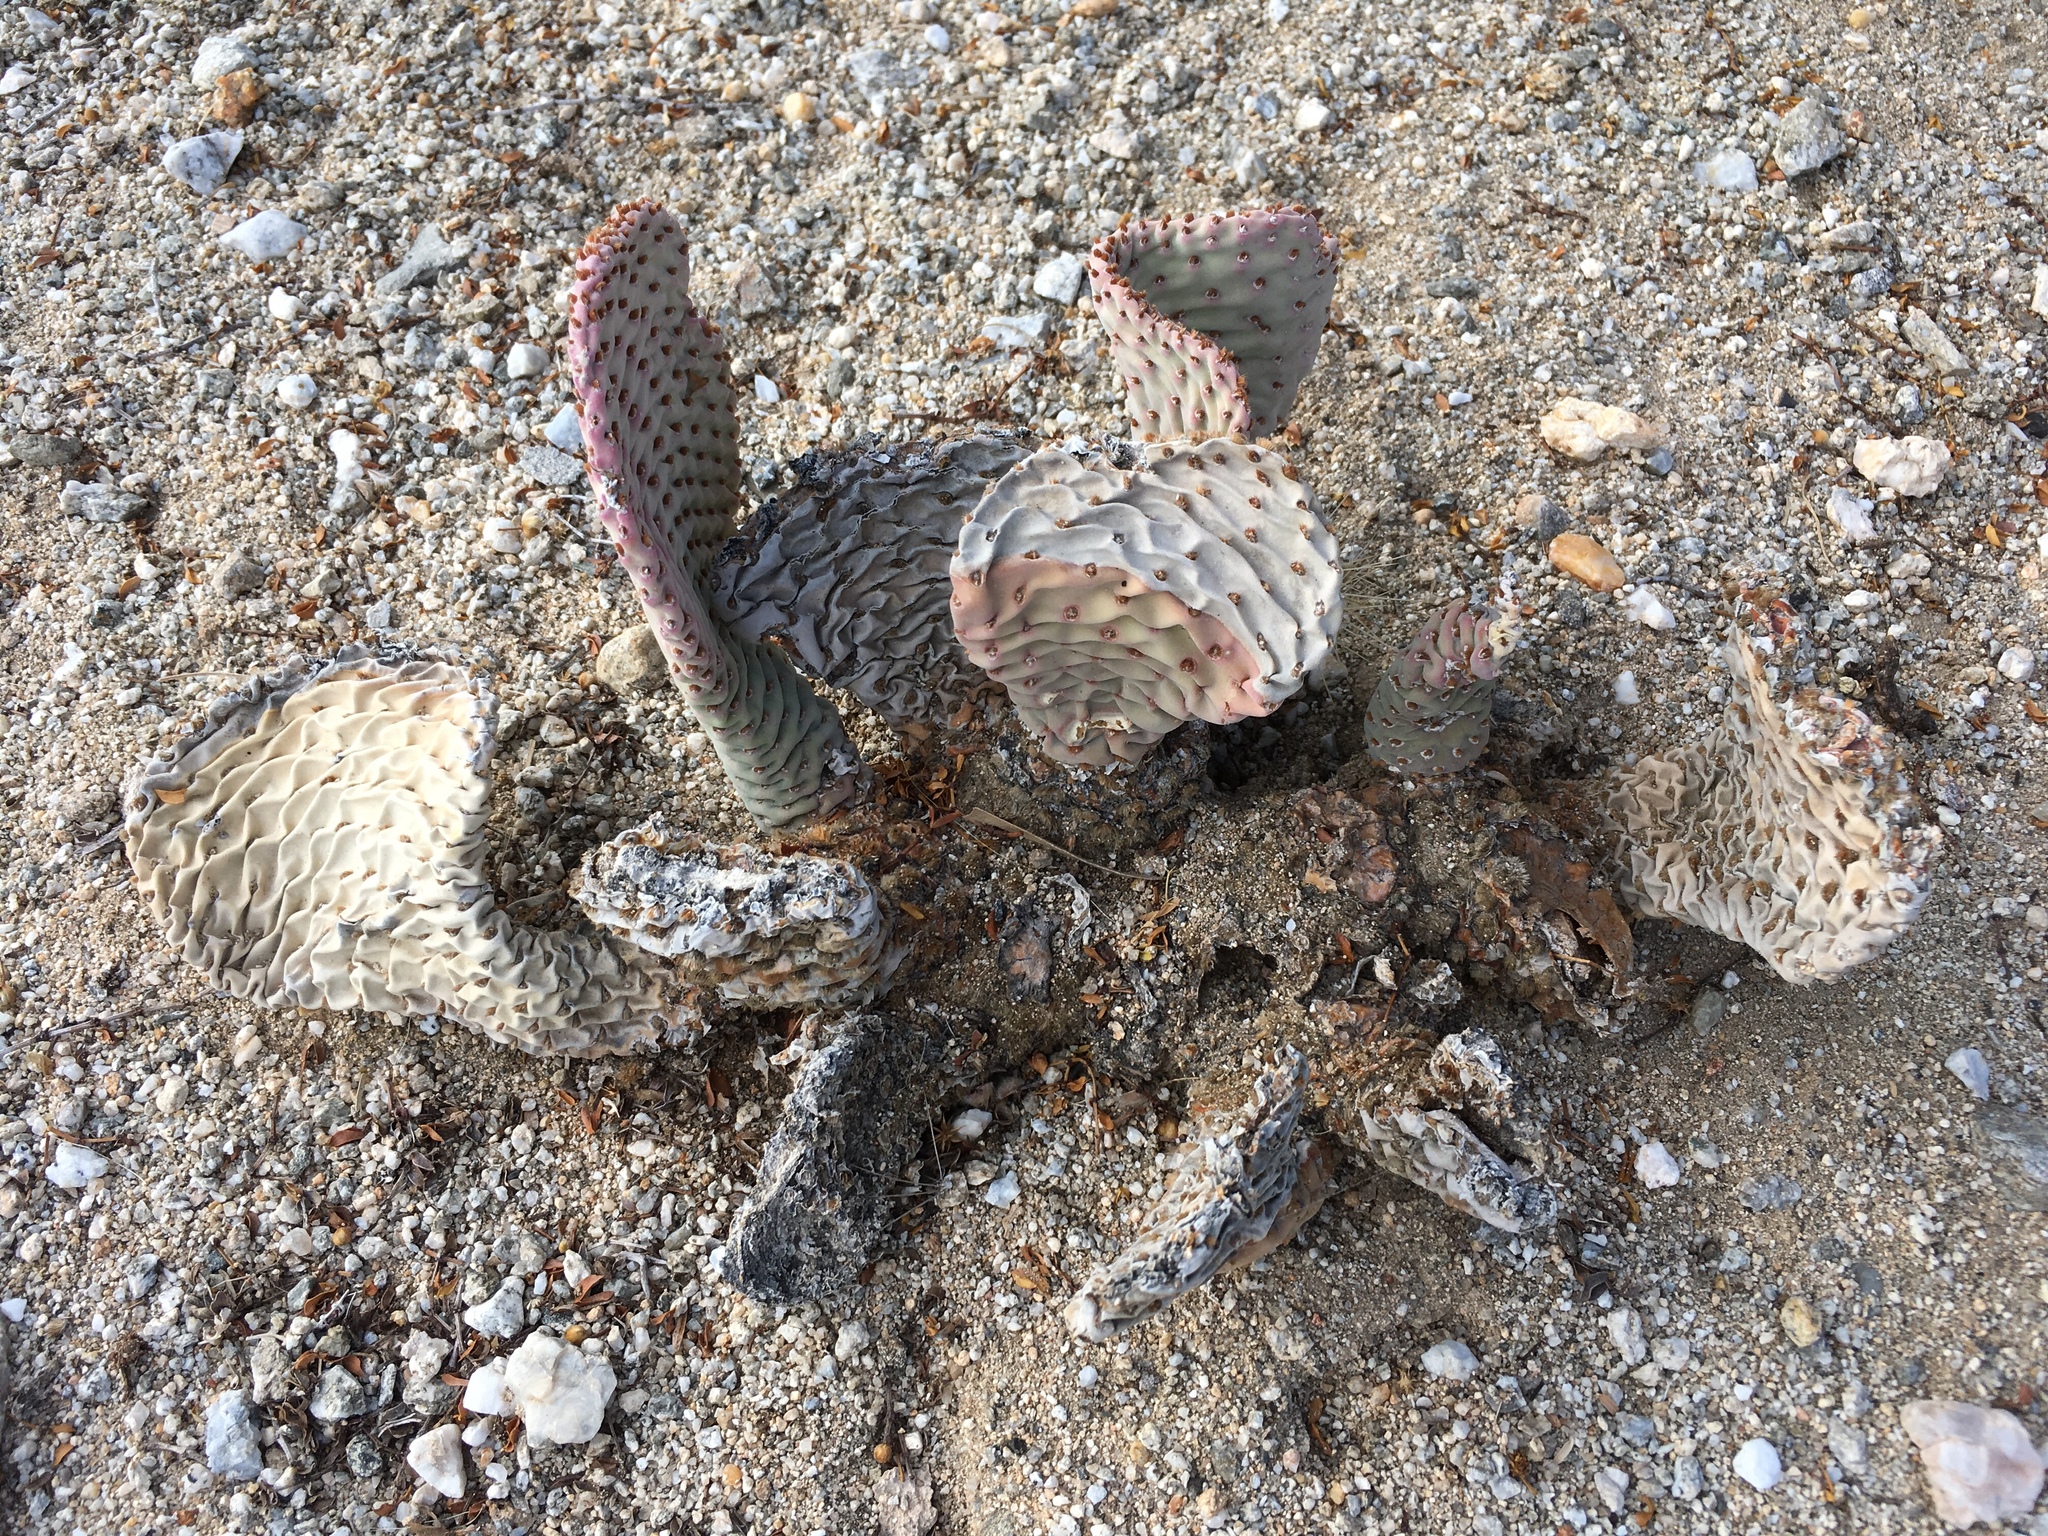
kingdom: Plantae
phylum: Tracheophyta
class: Magnoliopsida
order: Caryophyllales
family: Cactaceae
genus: Opuntia
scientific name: Opuntia basilaris
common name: Beavertail prickly-pear
